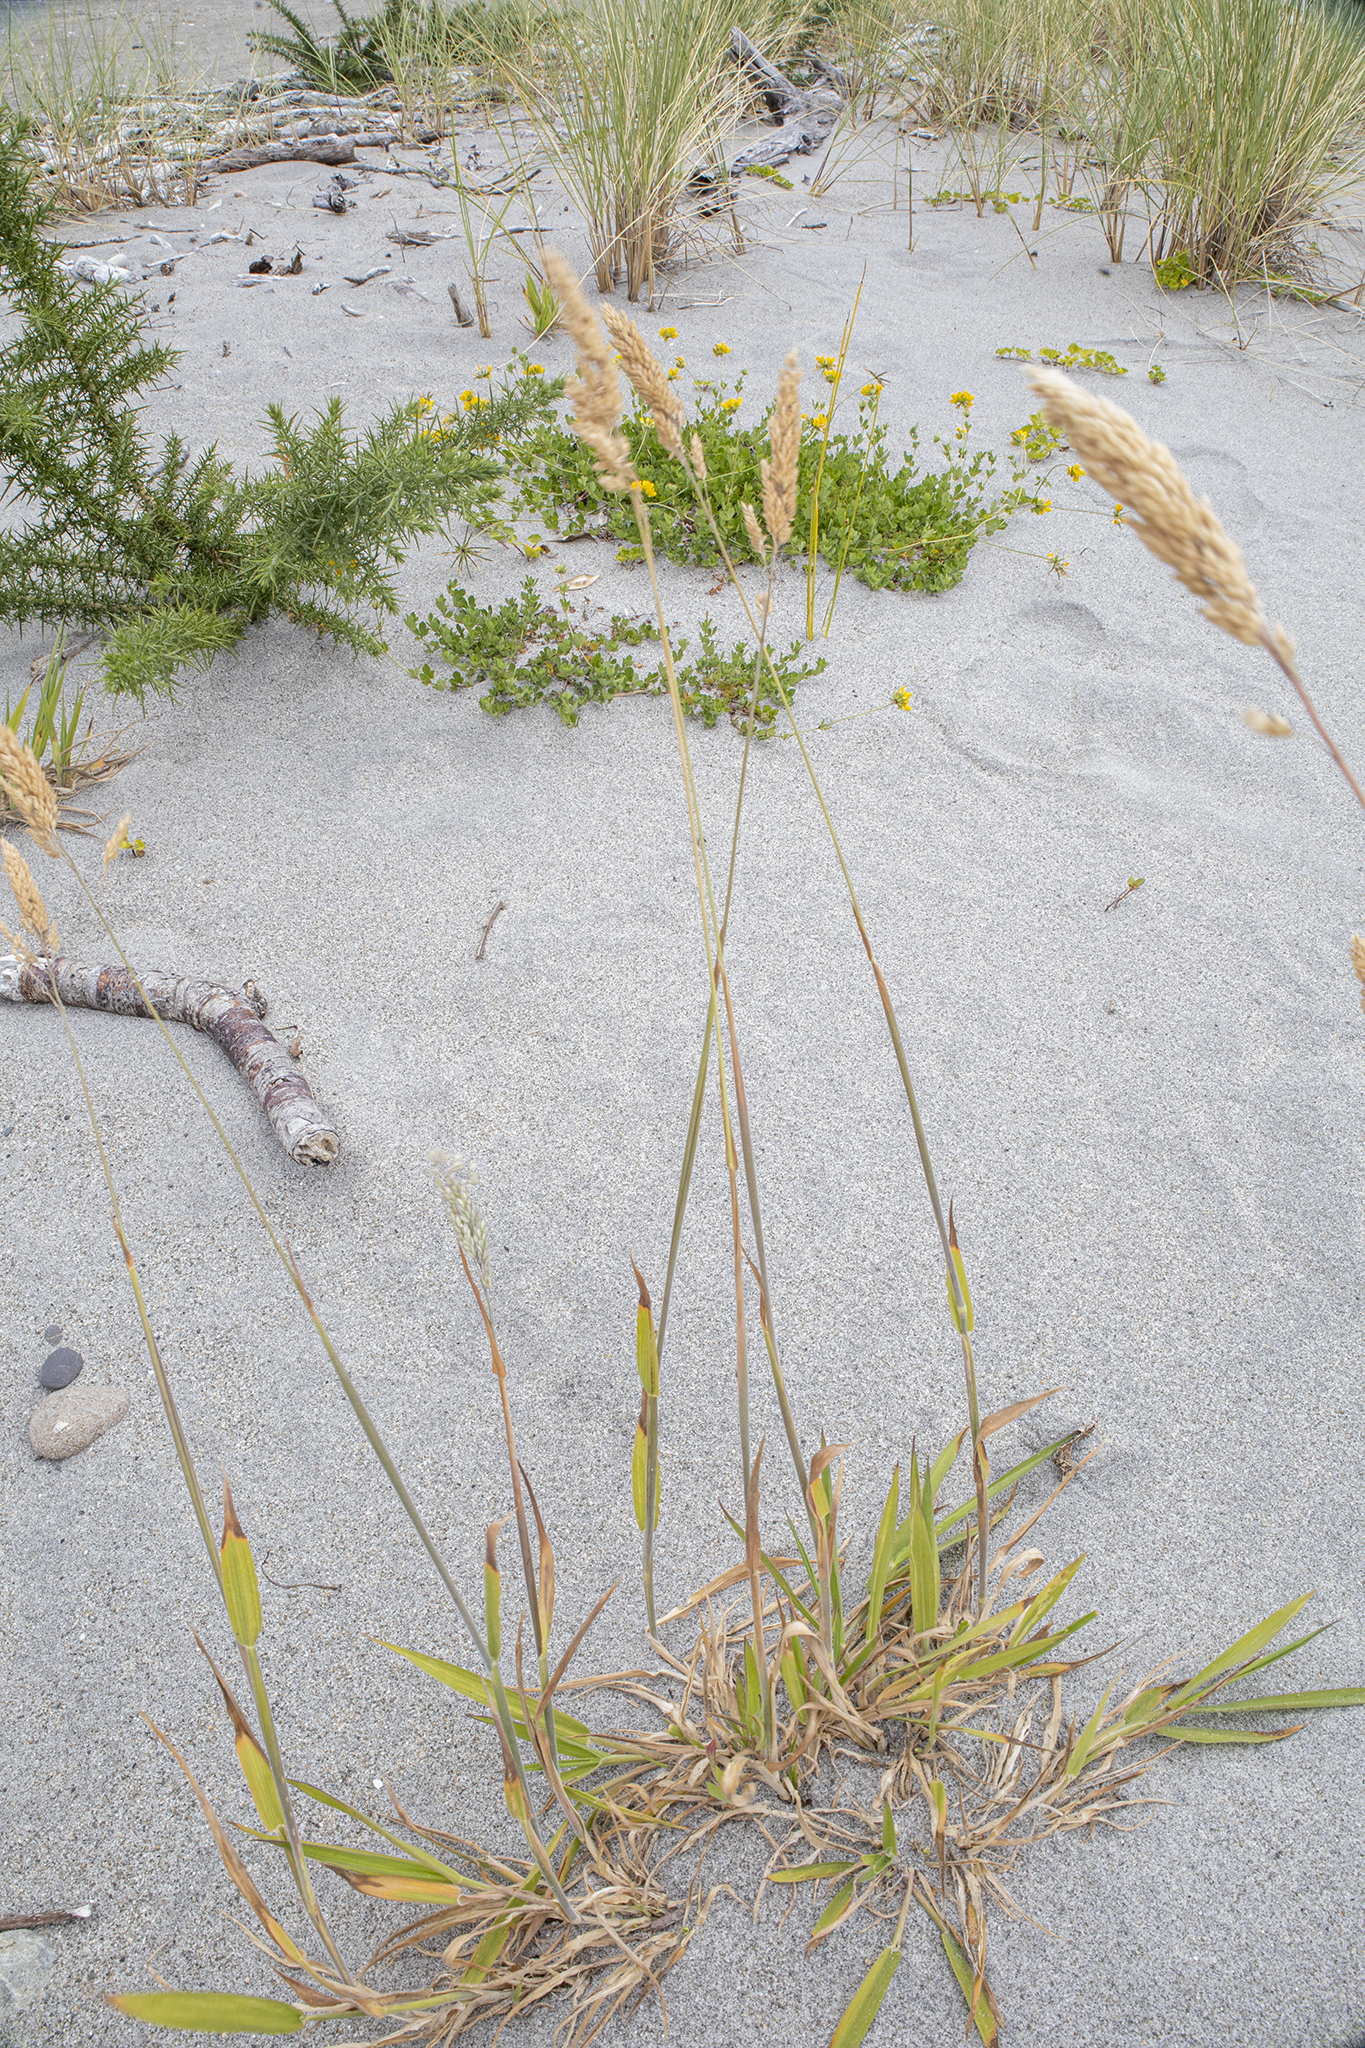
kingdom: Plantae
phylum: Tracheophyta
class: Liliopsida
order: Poales
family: Poaceae
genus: Holcus
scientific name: Holcus lanatus
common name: Yorkshire-fog
